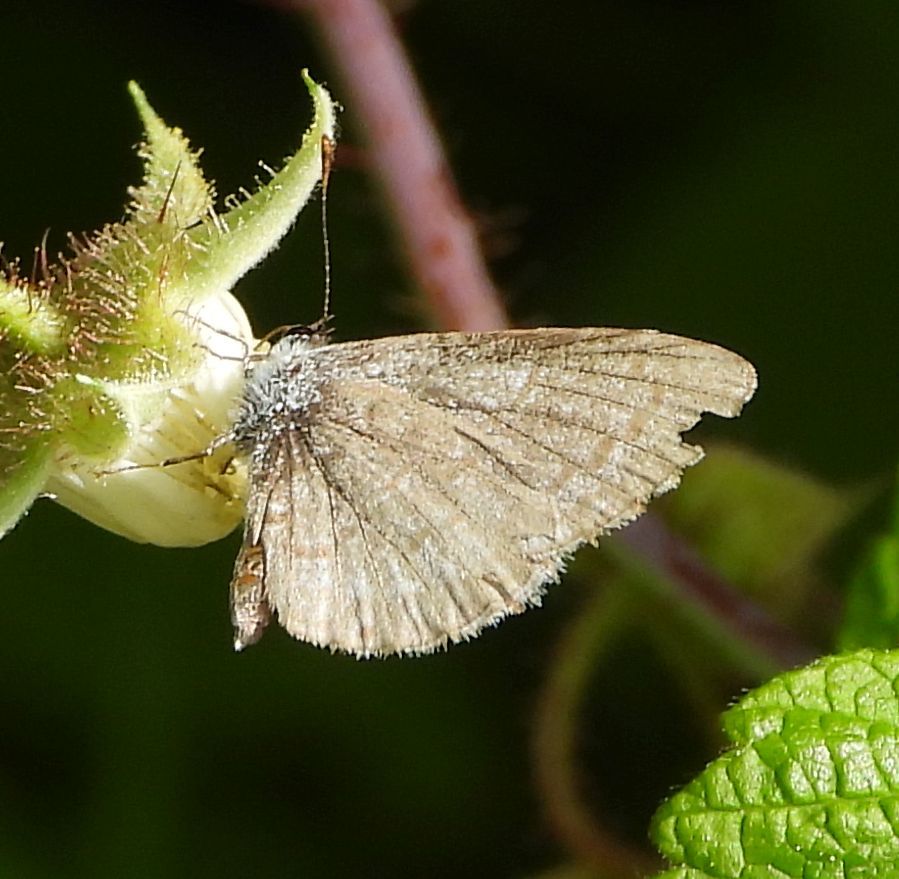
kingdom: Animalia
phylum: Arthropoda
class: Insecta
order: Lepidoptera
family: Lycaenidae
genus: Celastrina
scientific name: Celastrina lucia
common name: Lucia azure
